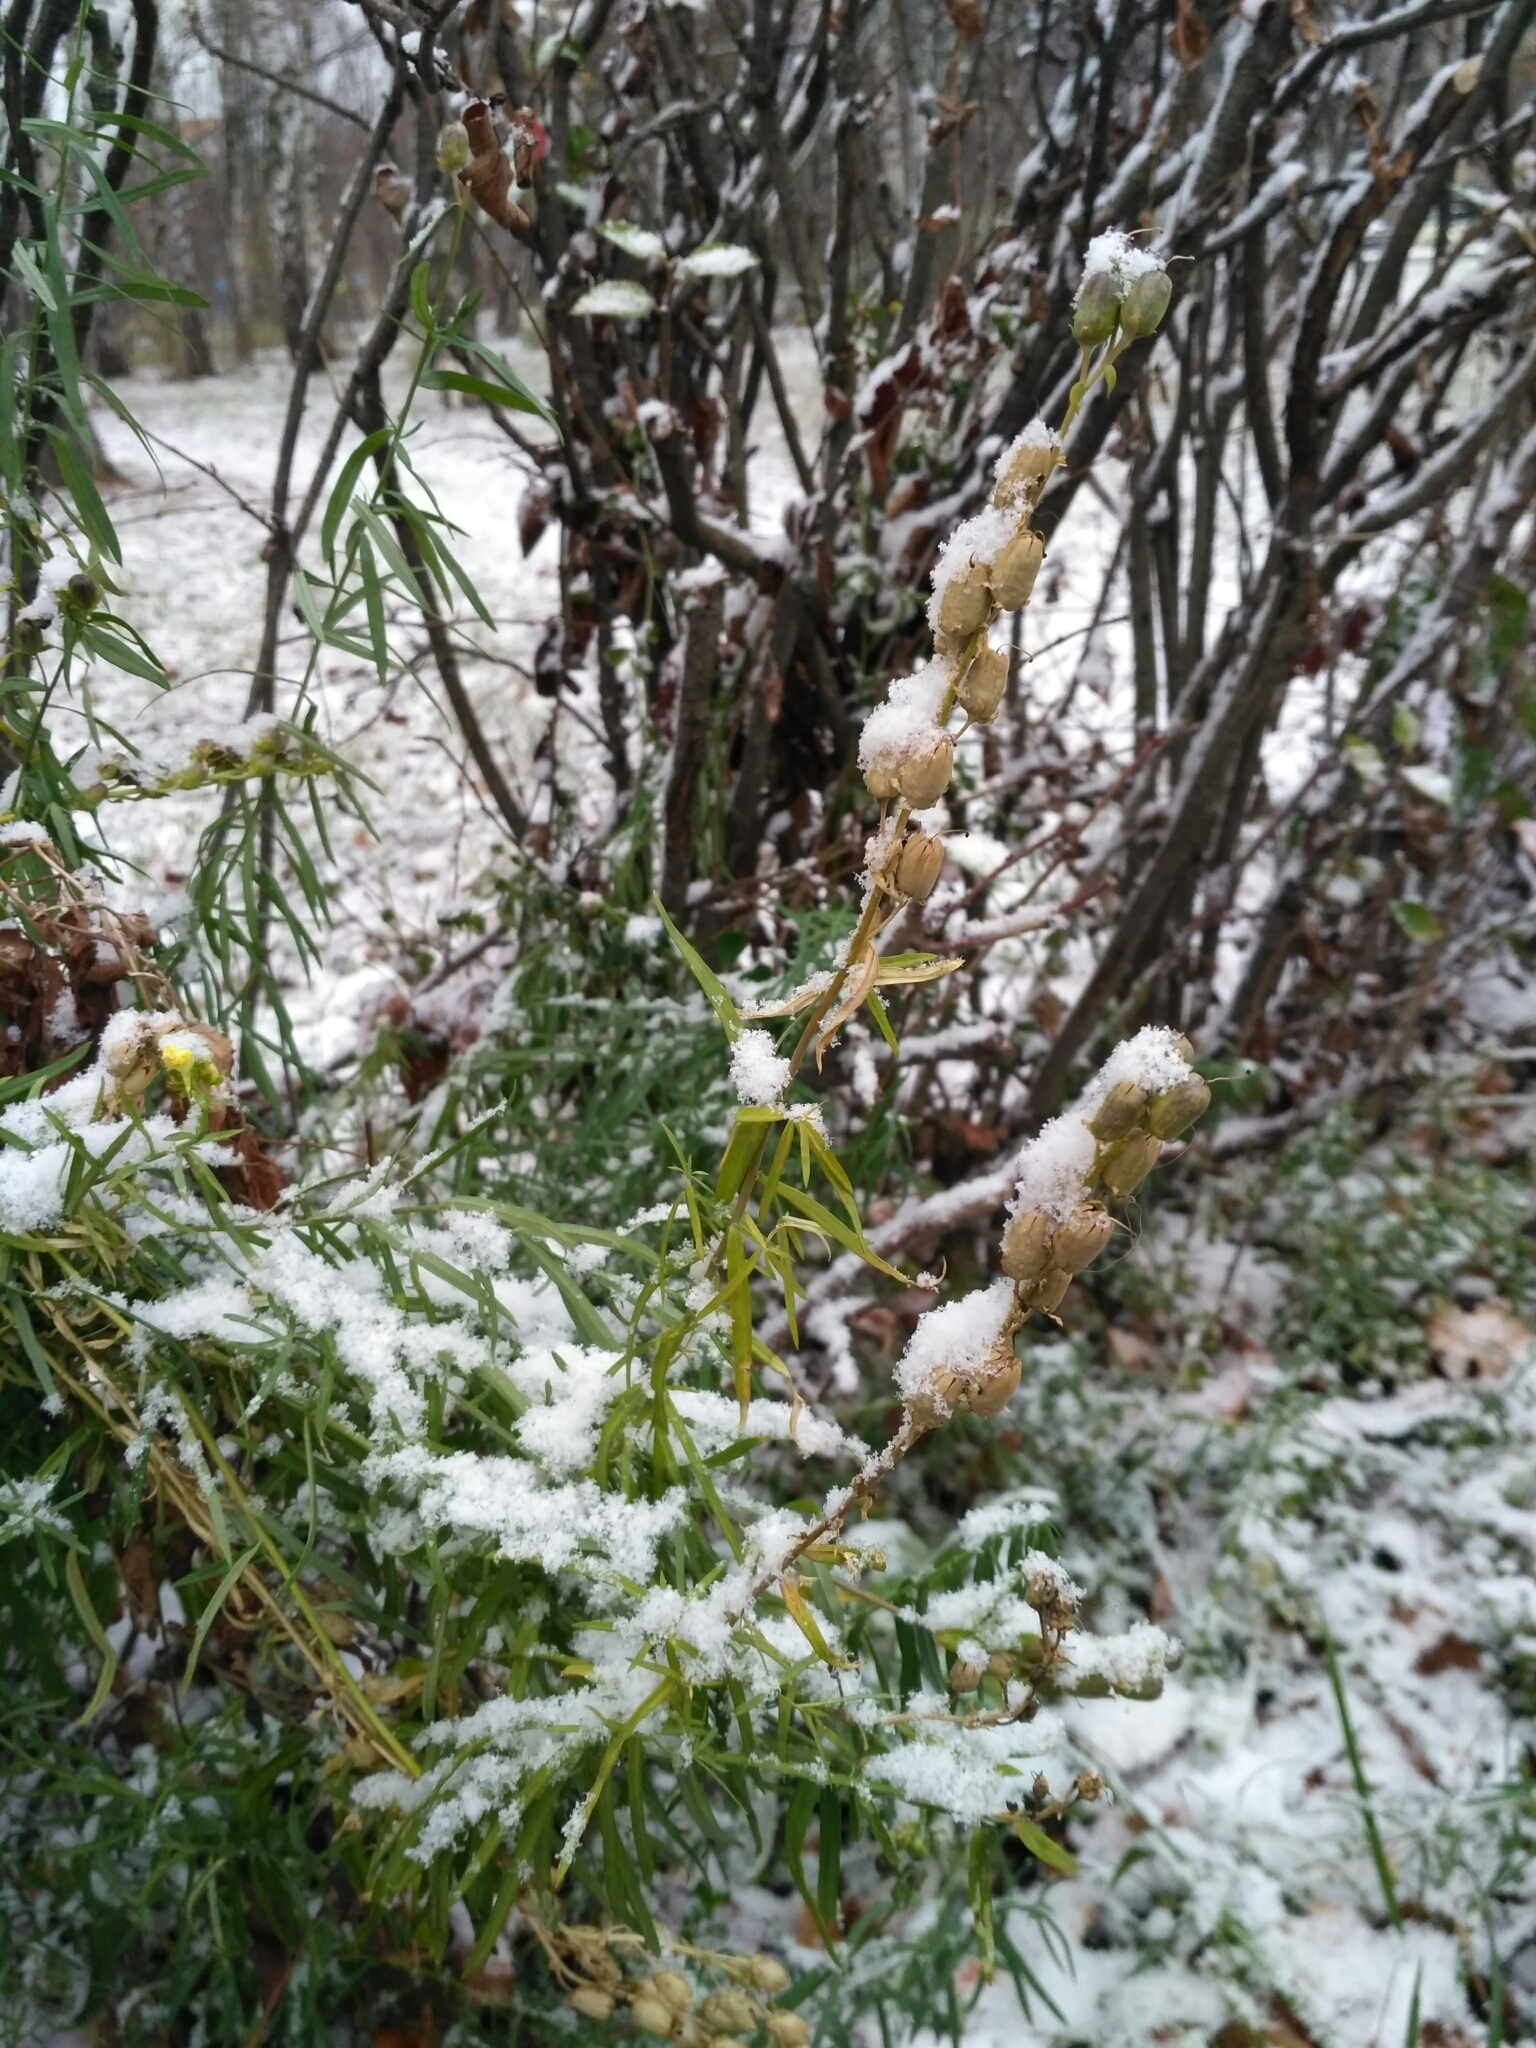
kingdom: Plantae
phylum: Tracheophyta
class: Magnoliopsida
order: Lamiales
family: Plantaginaceae
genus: Linaria
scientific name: Linaria vulgaris
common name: Butter and eggs
